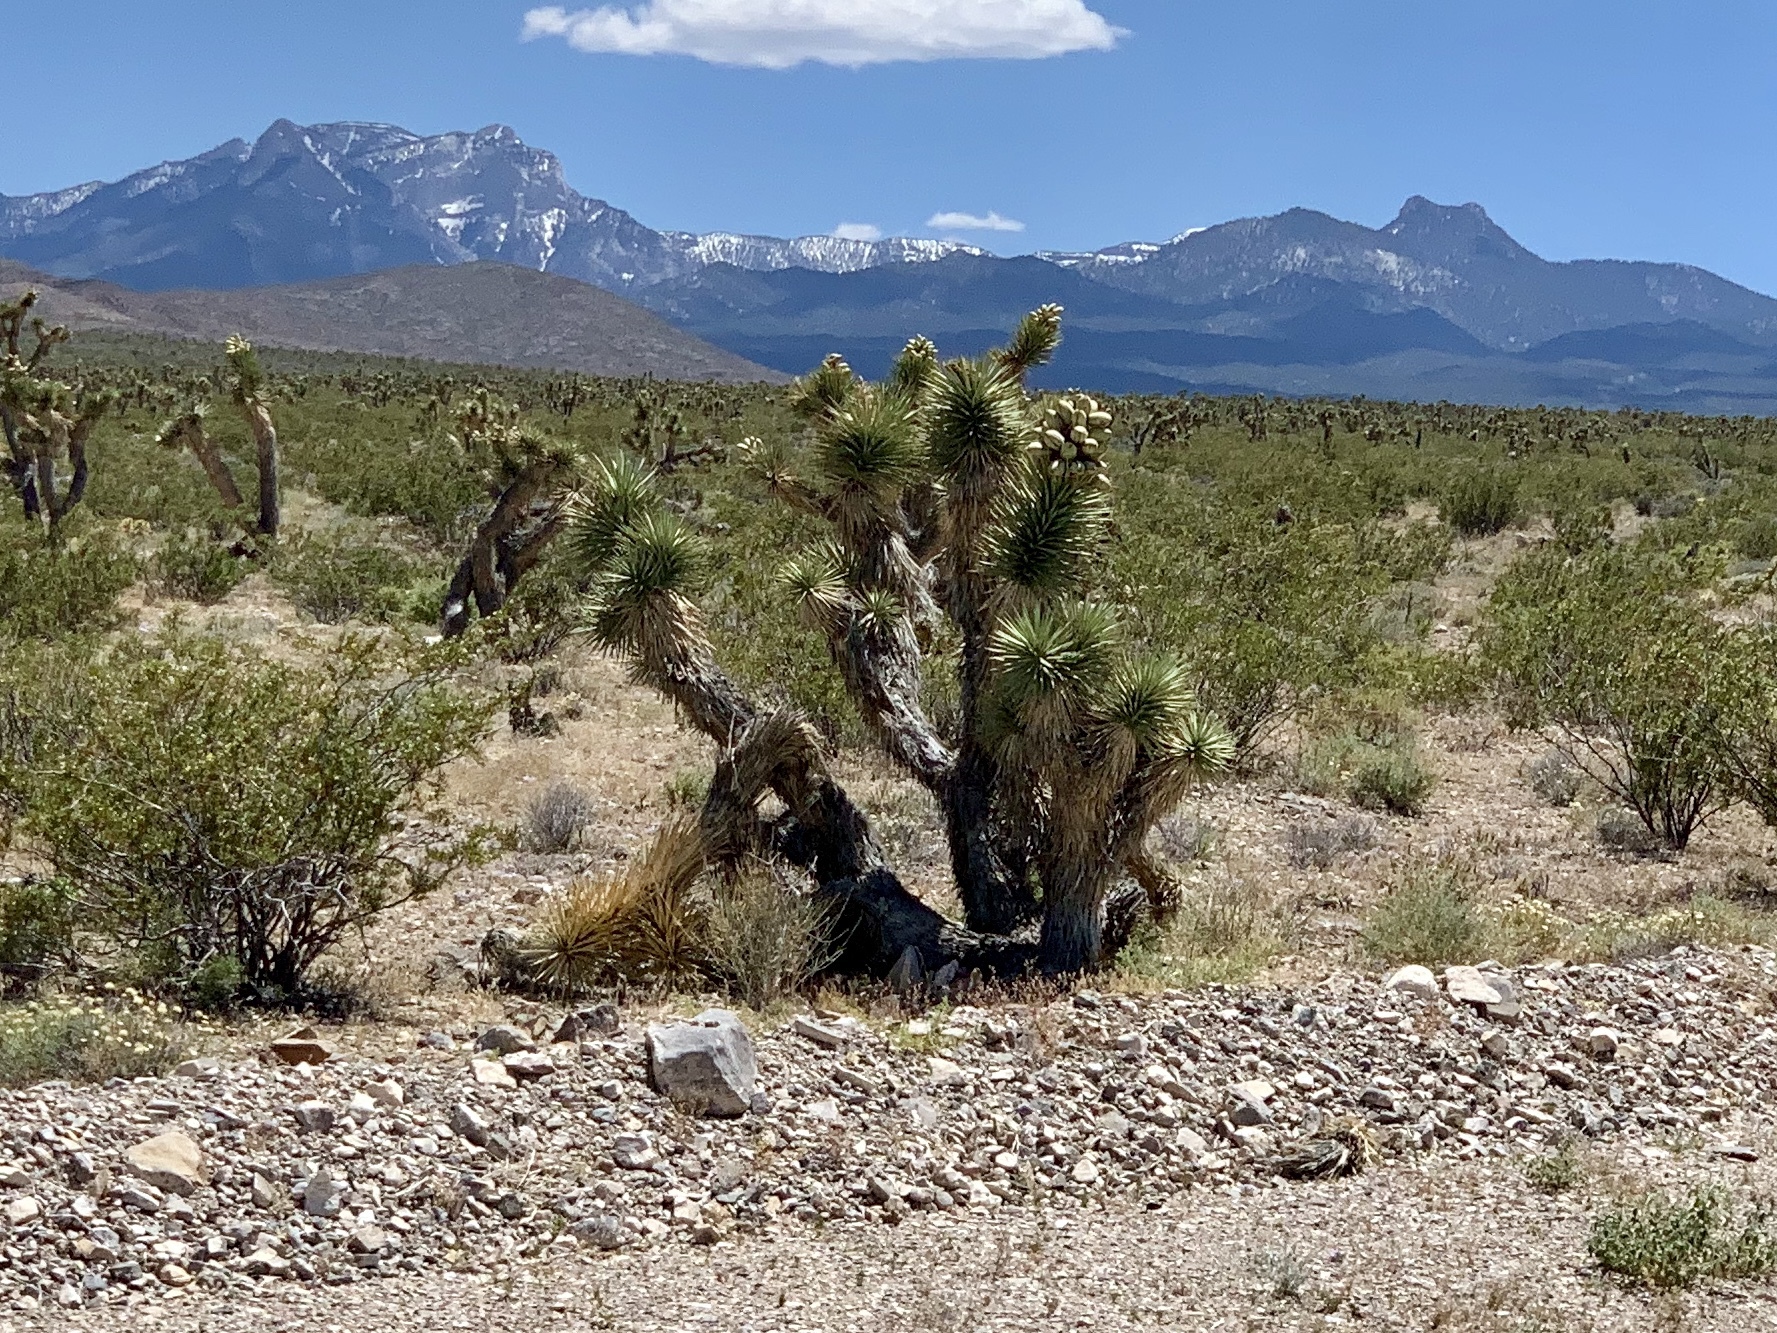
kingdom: Plantae
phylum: Tracheophyta
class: Liliopsida
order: Asparagales
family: Asparagaceae
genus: Yucca
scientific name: Yucca brevifolia
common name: Joshua tree
